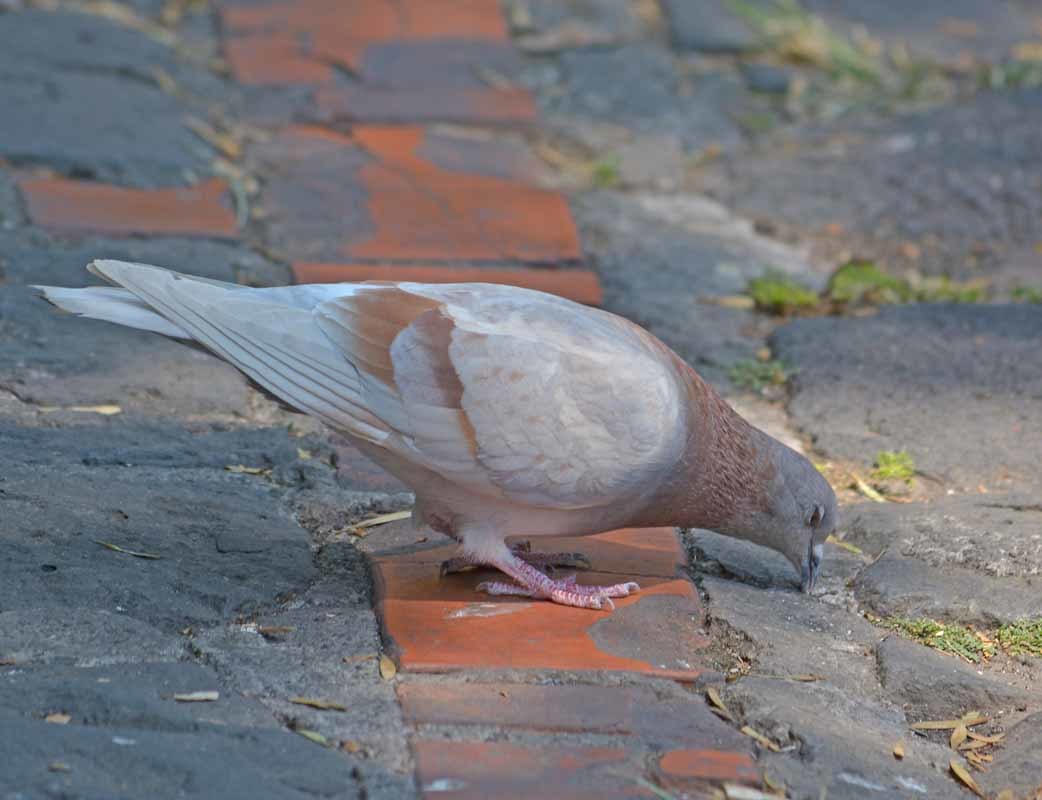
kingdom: Animalia
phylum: Chordata
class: Aves
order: Columbiformes
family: Columbidae
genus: Columba
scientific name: Columba livia
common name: Rock pigeon
